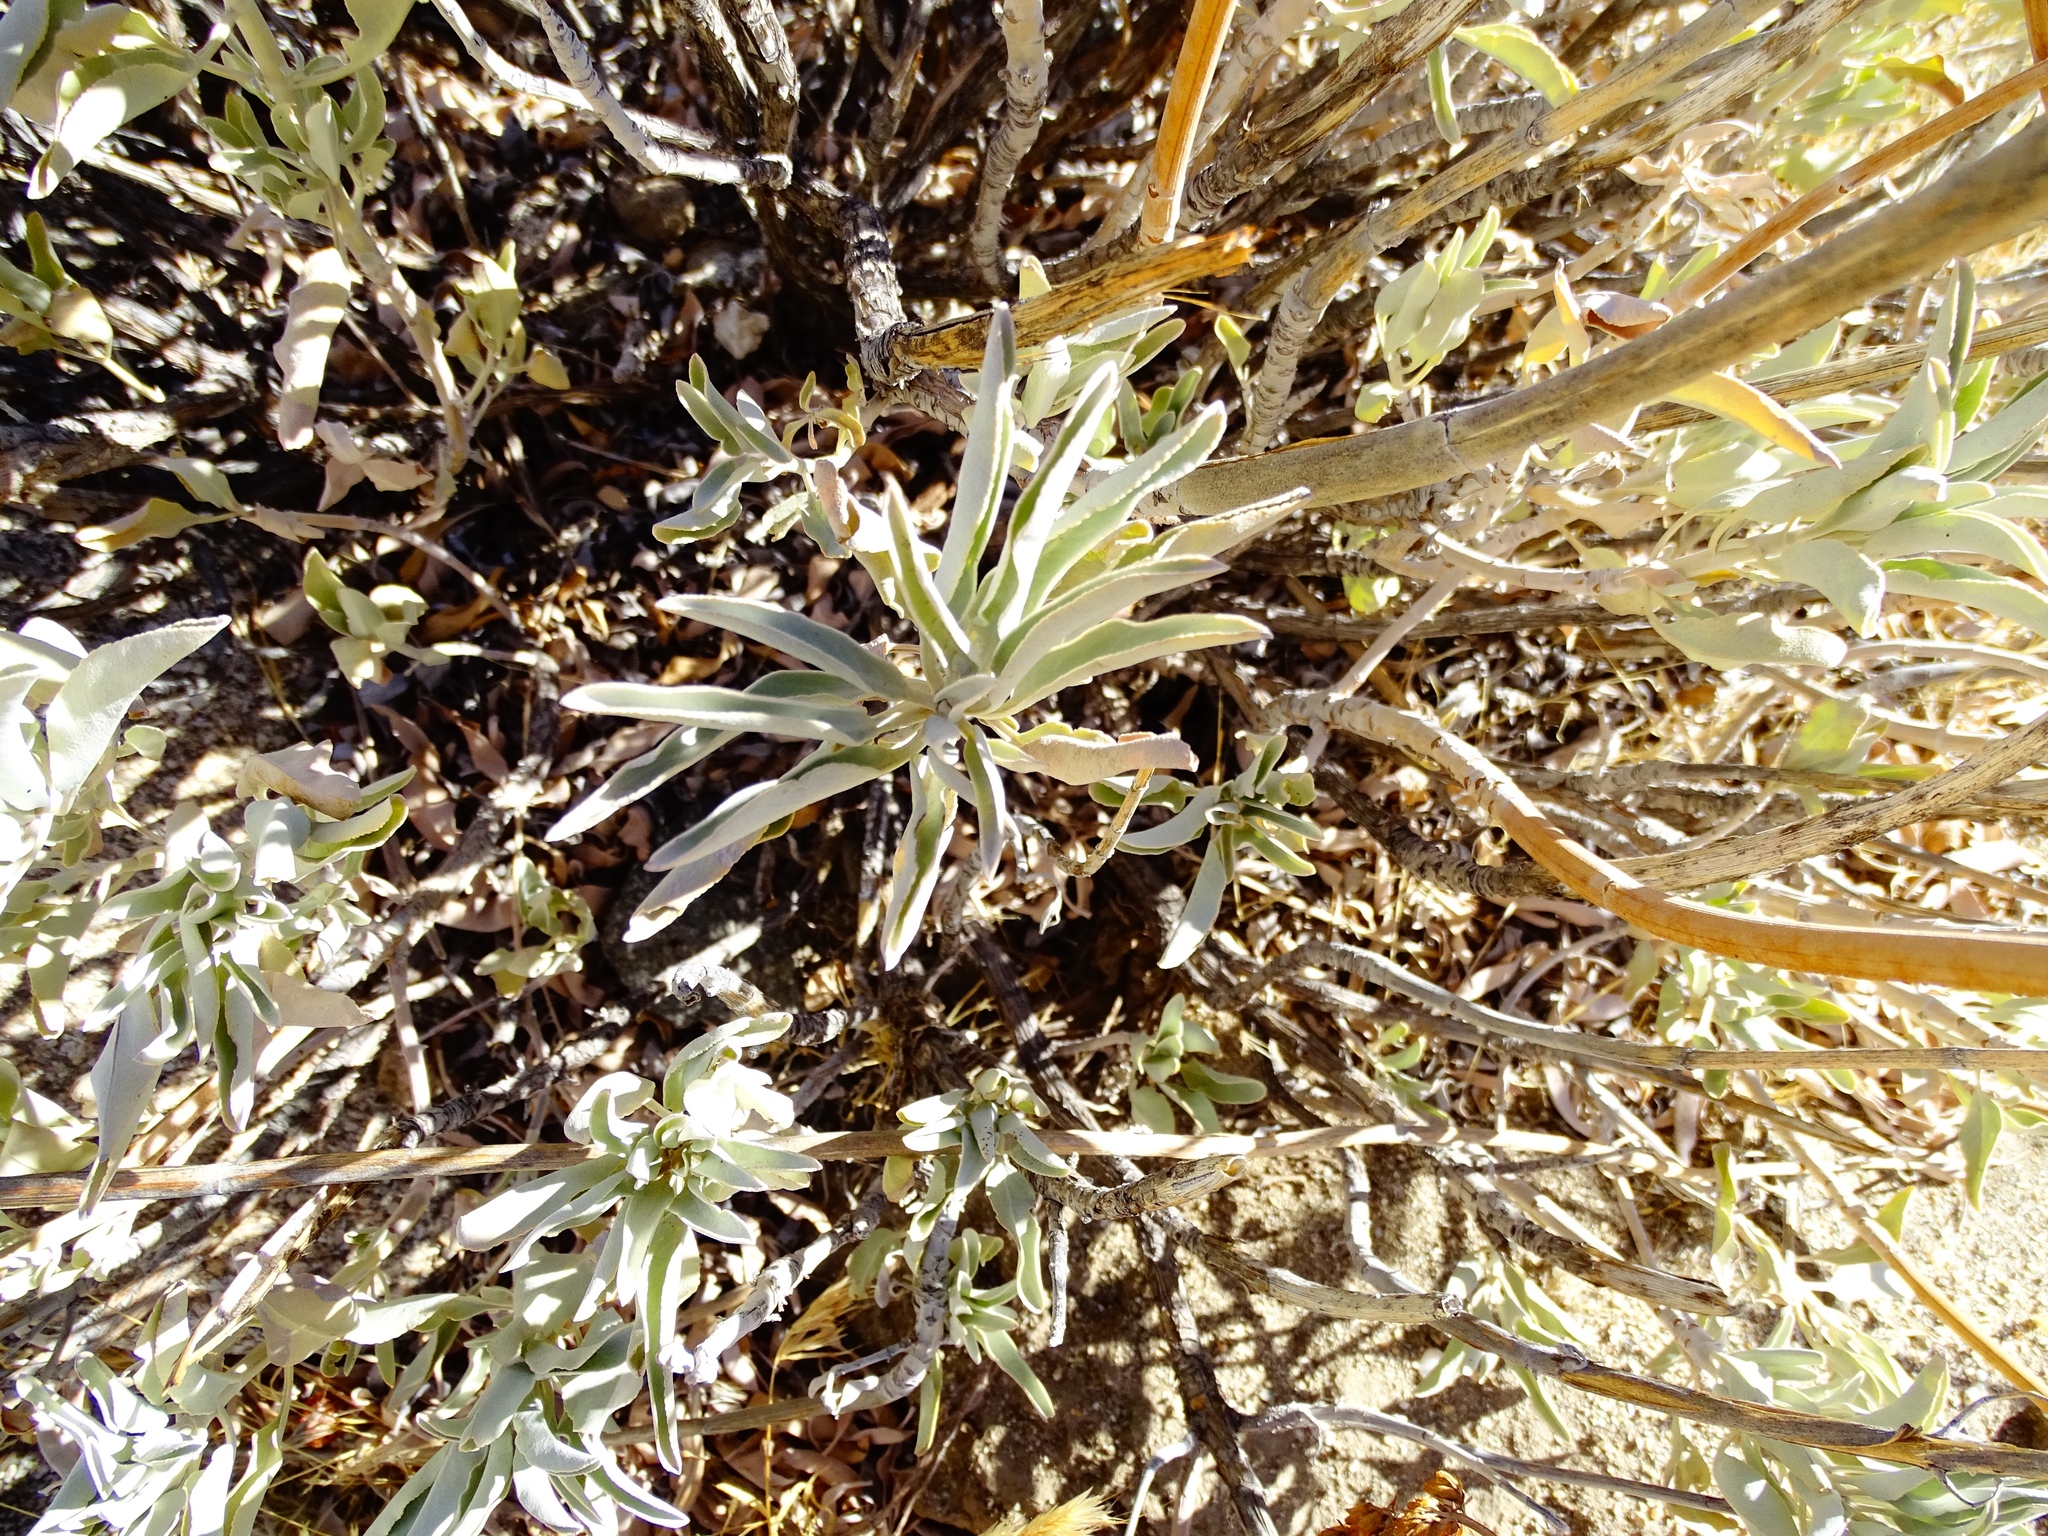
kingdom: Plantae
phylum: Tracheophyta
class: Magnoliopsida
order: Lamiales
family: Lamiaceae
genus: Salvia
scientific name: Salvia apiana
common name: White sage
